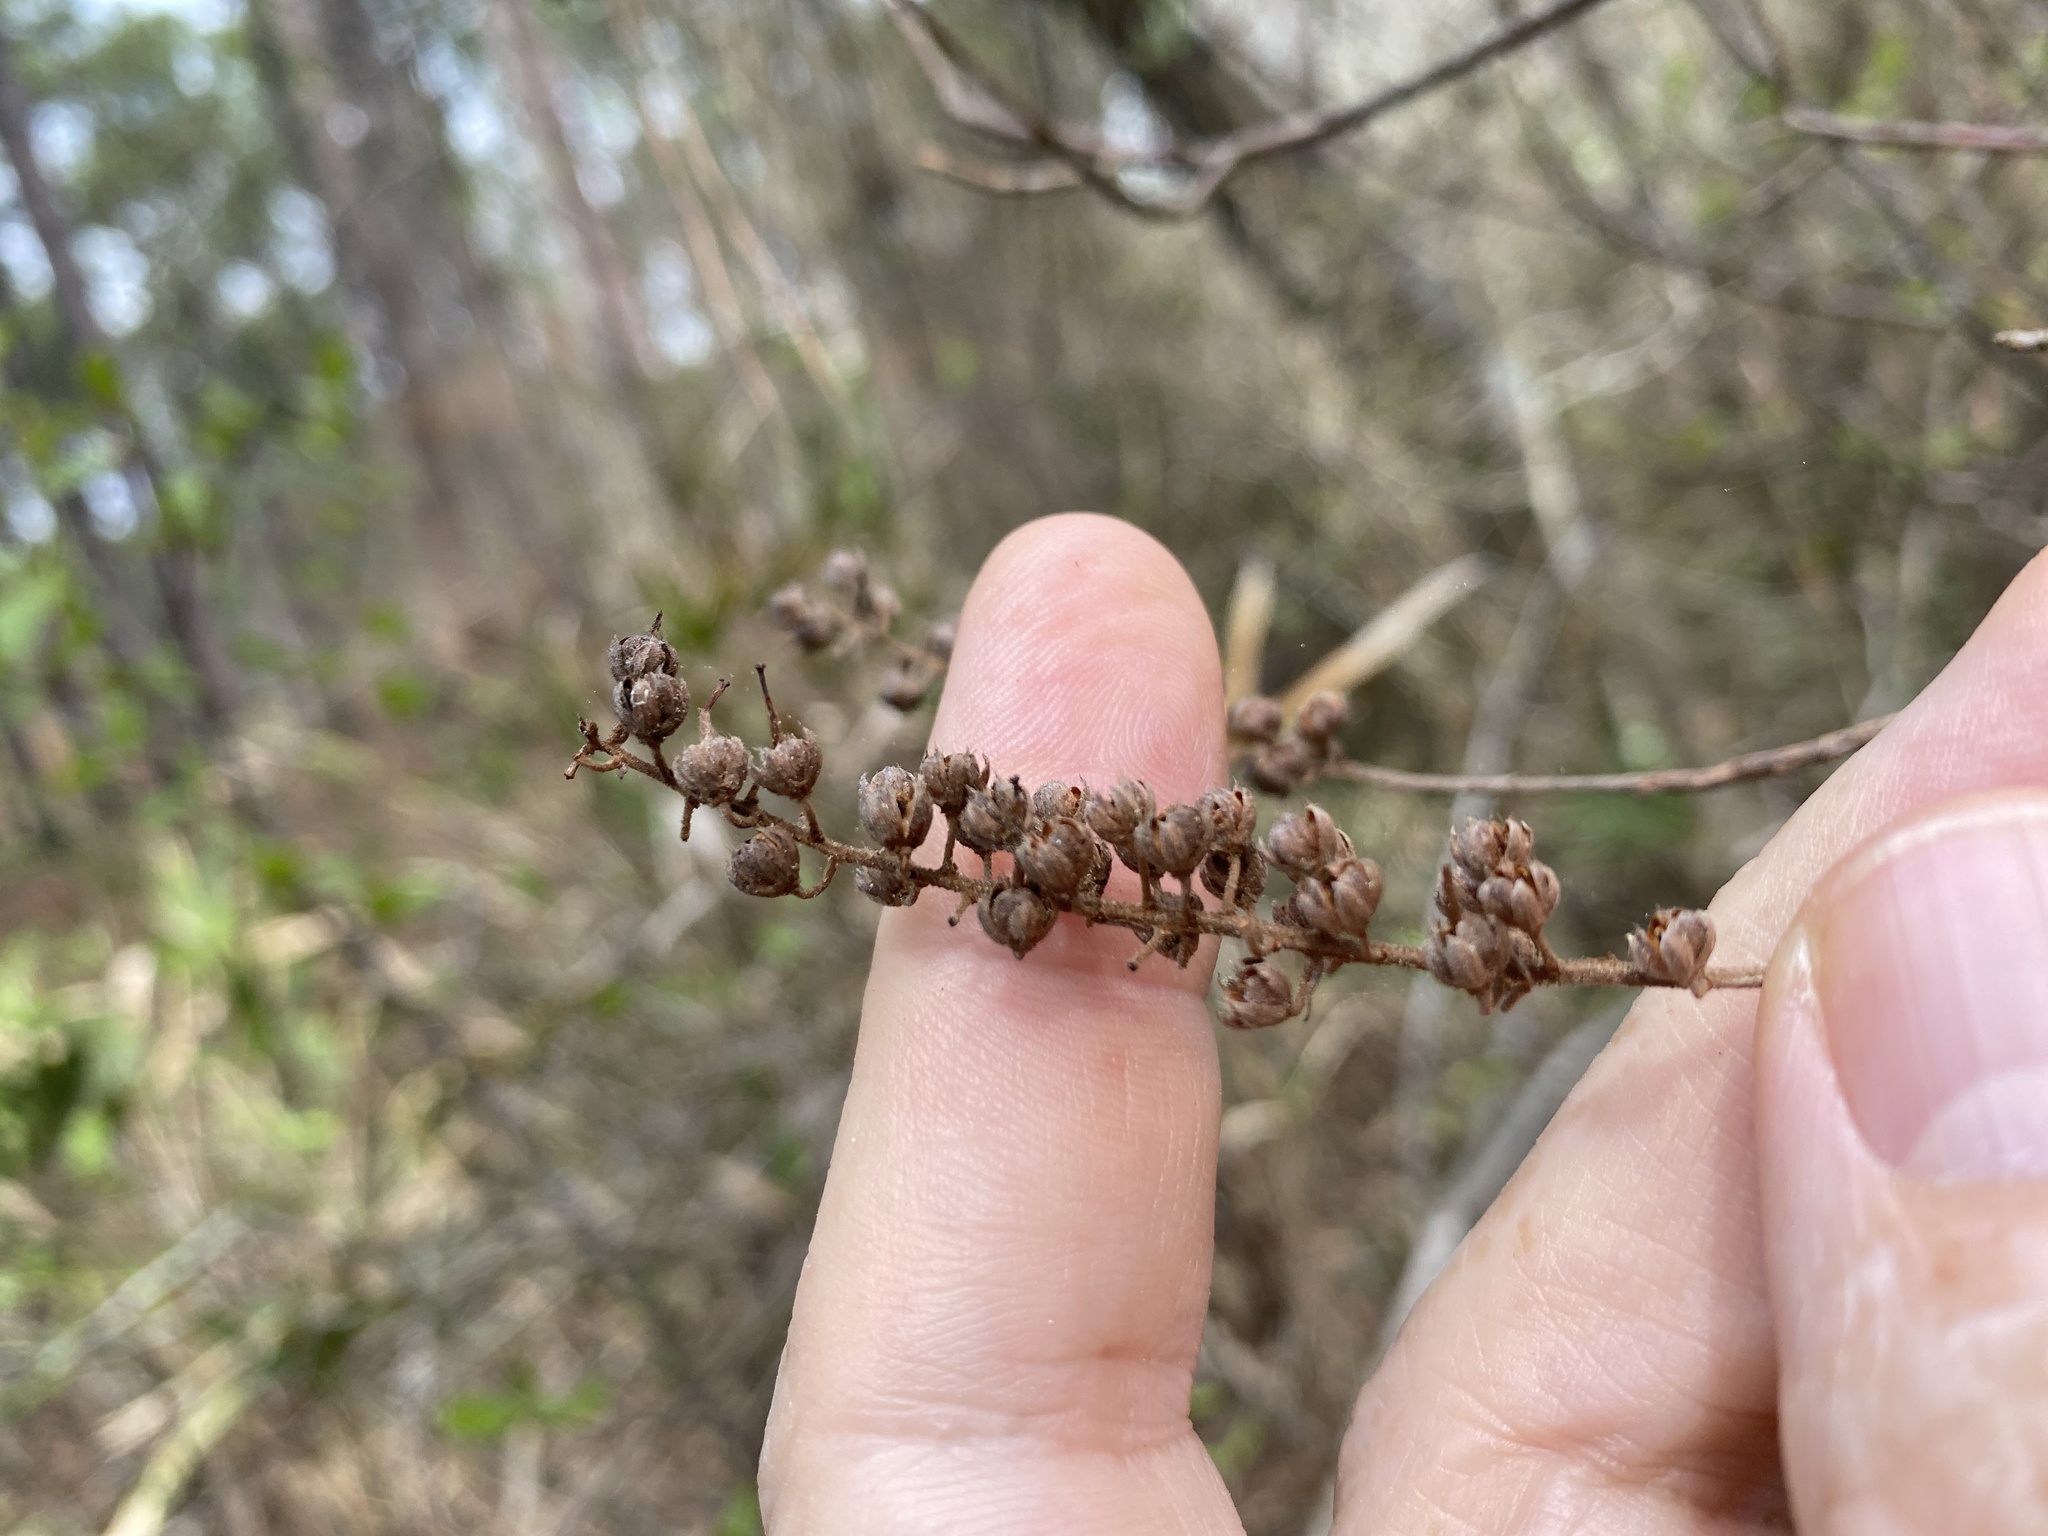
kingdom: Plantae
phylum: Tracheophyta
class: Magnoliopsida
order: Ericales
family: Clethraceae
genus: Clethra
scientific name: Clethra alnifolia
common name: Sweet pepperbush
